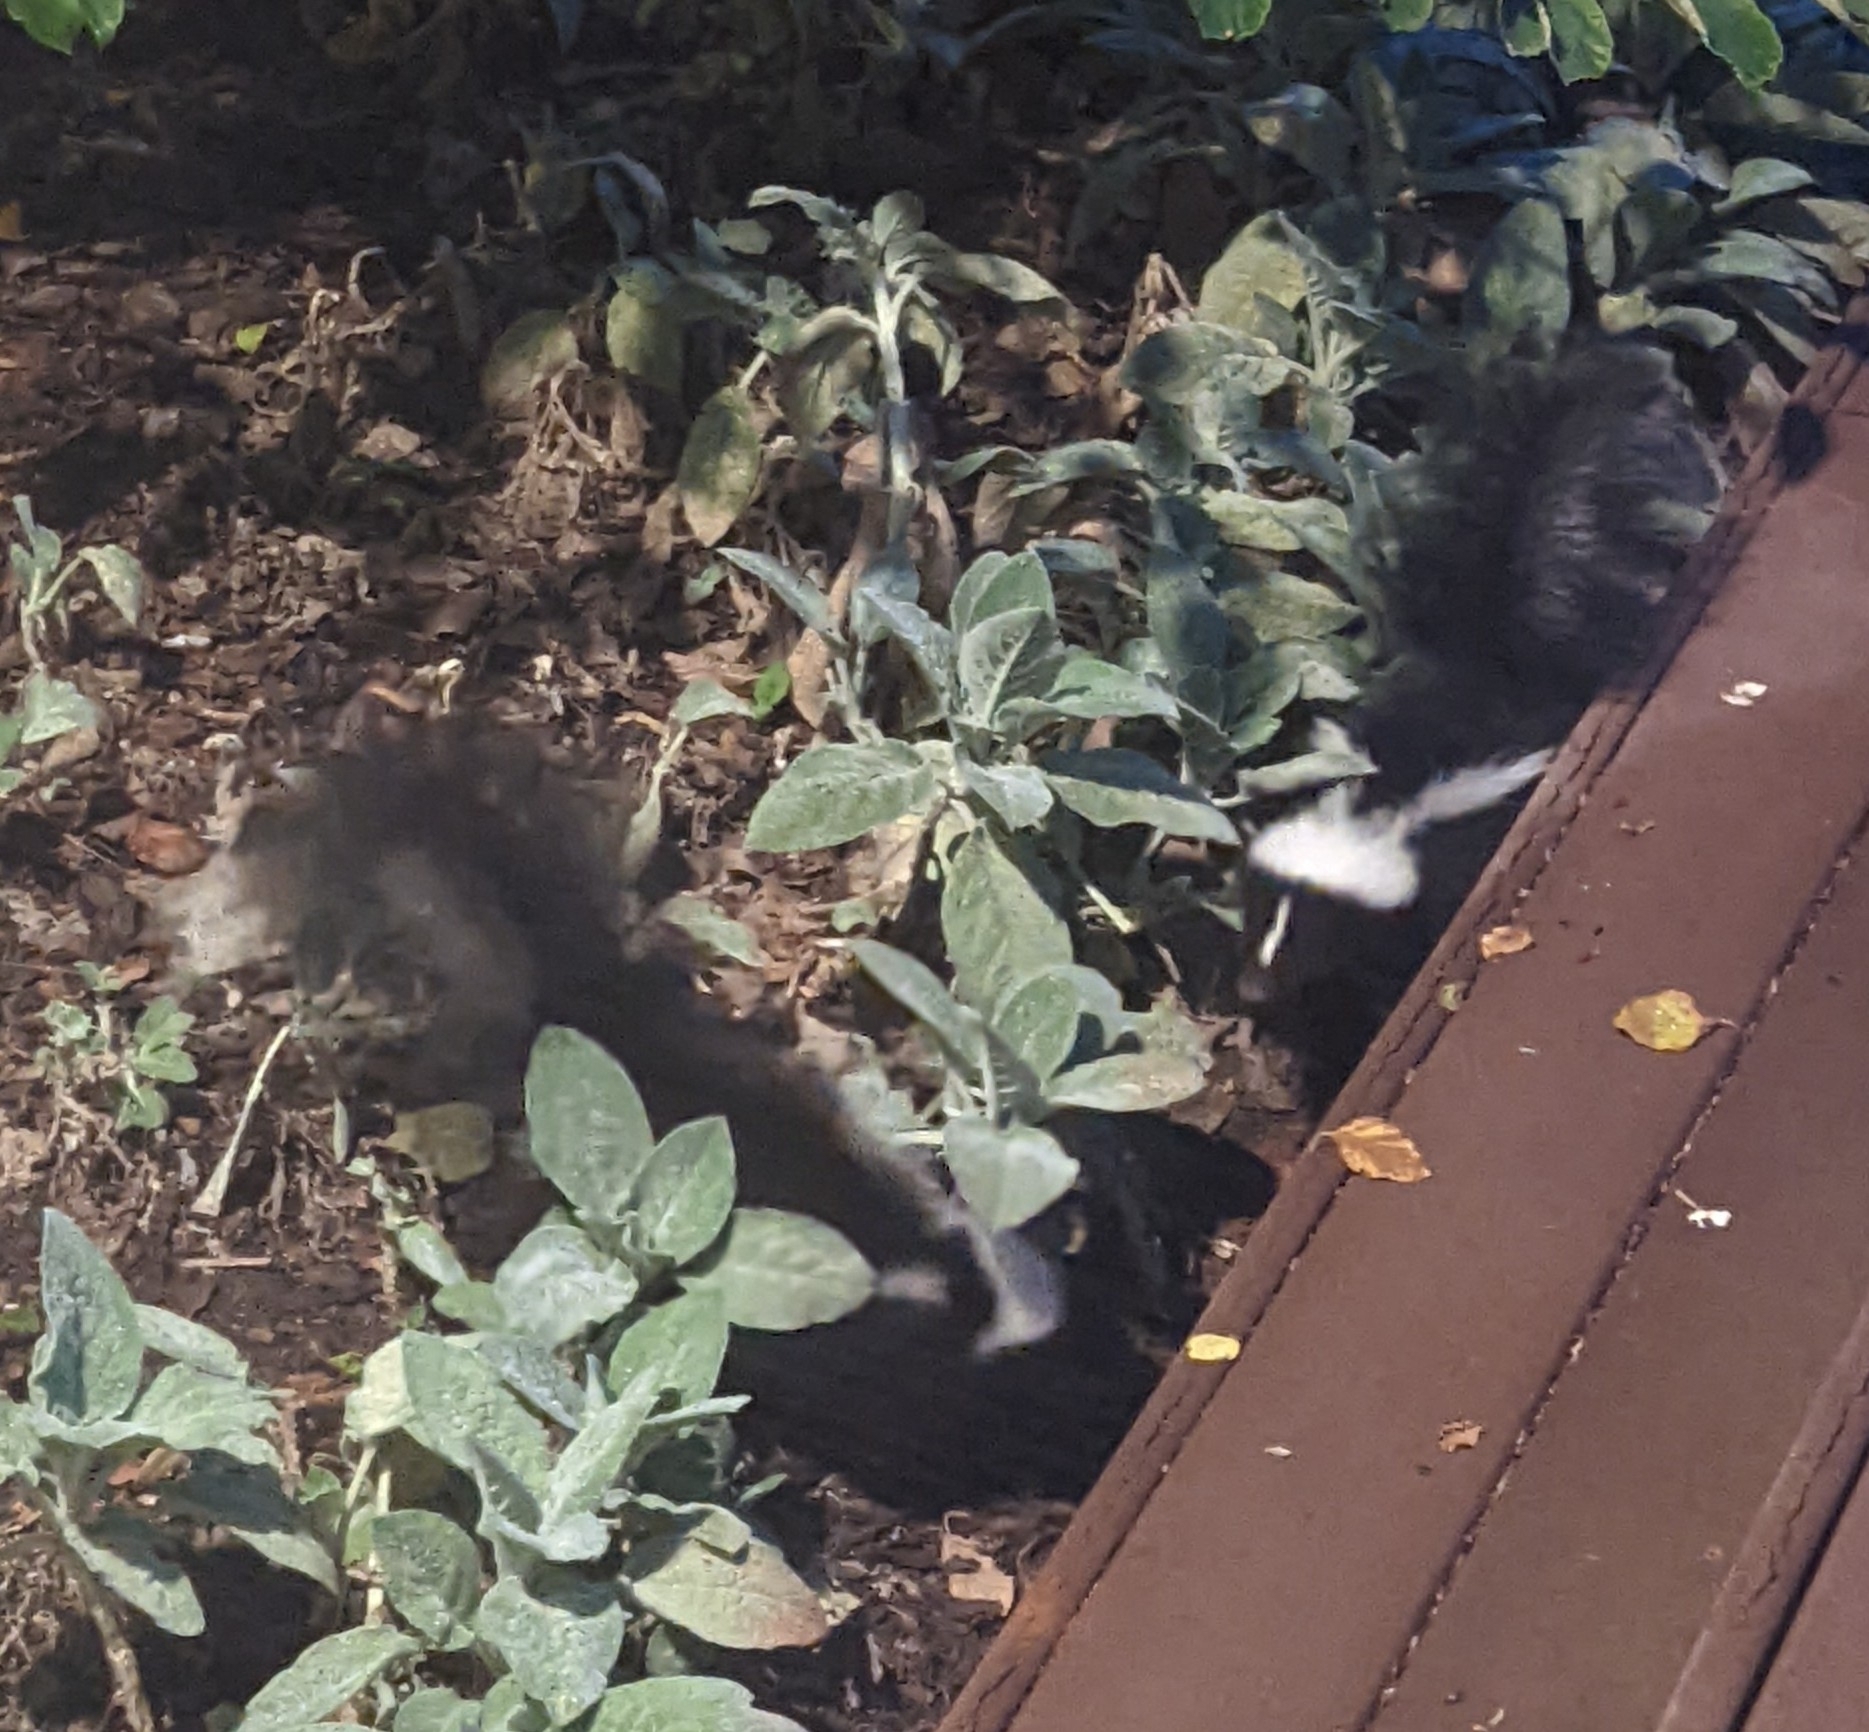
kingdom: Animalia
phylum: Chordata
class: Mammalia
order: Carnivora
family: Mephitidae
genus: Mephitis
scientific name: Mephitis mephitis
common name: Striped skunk
